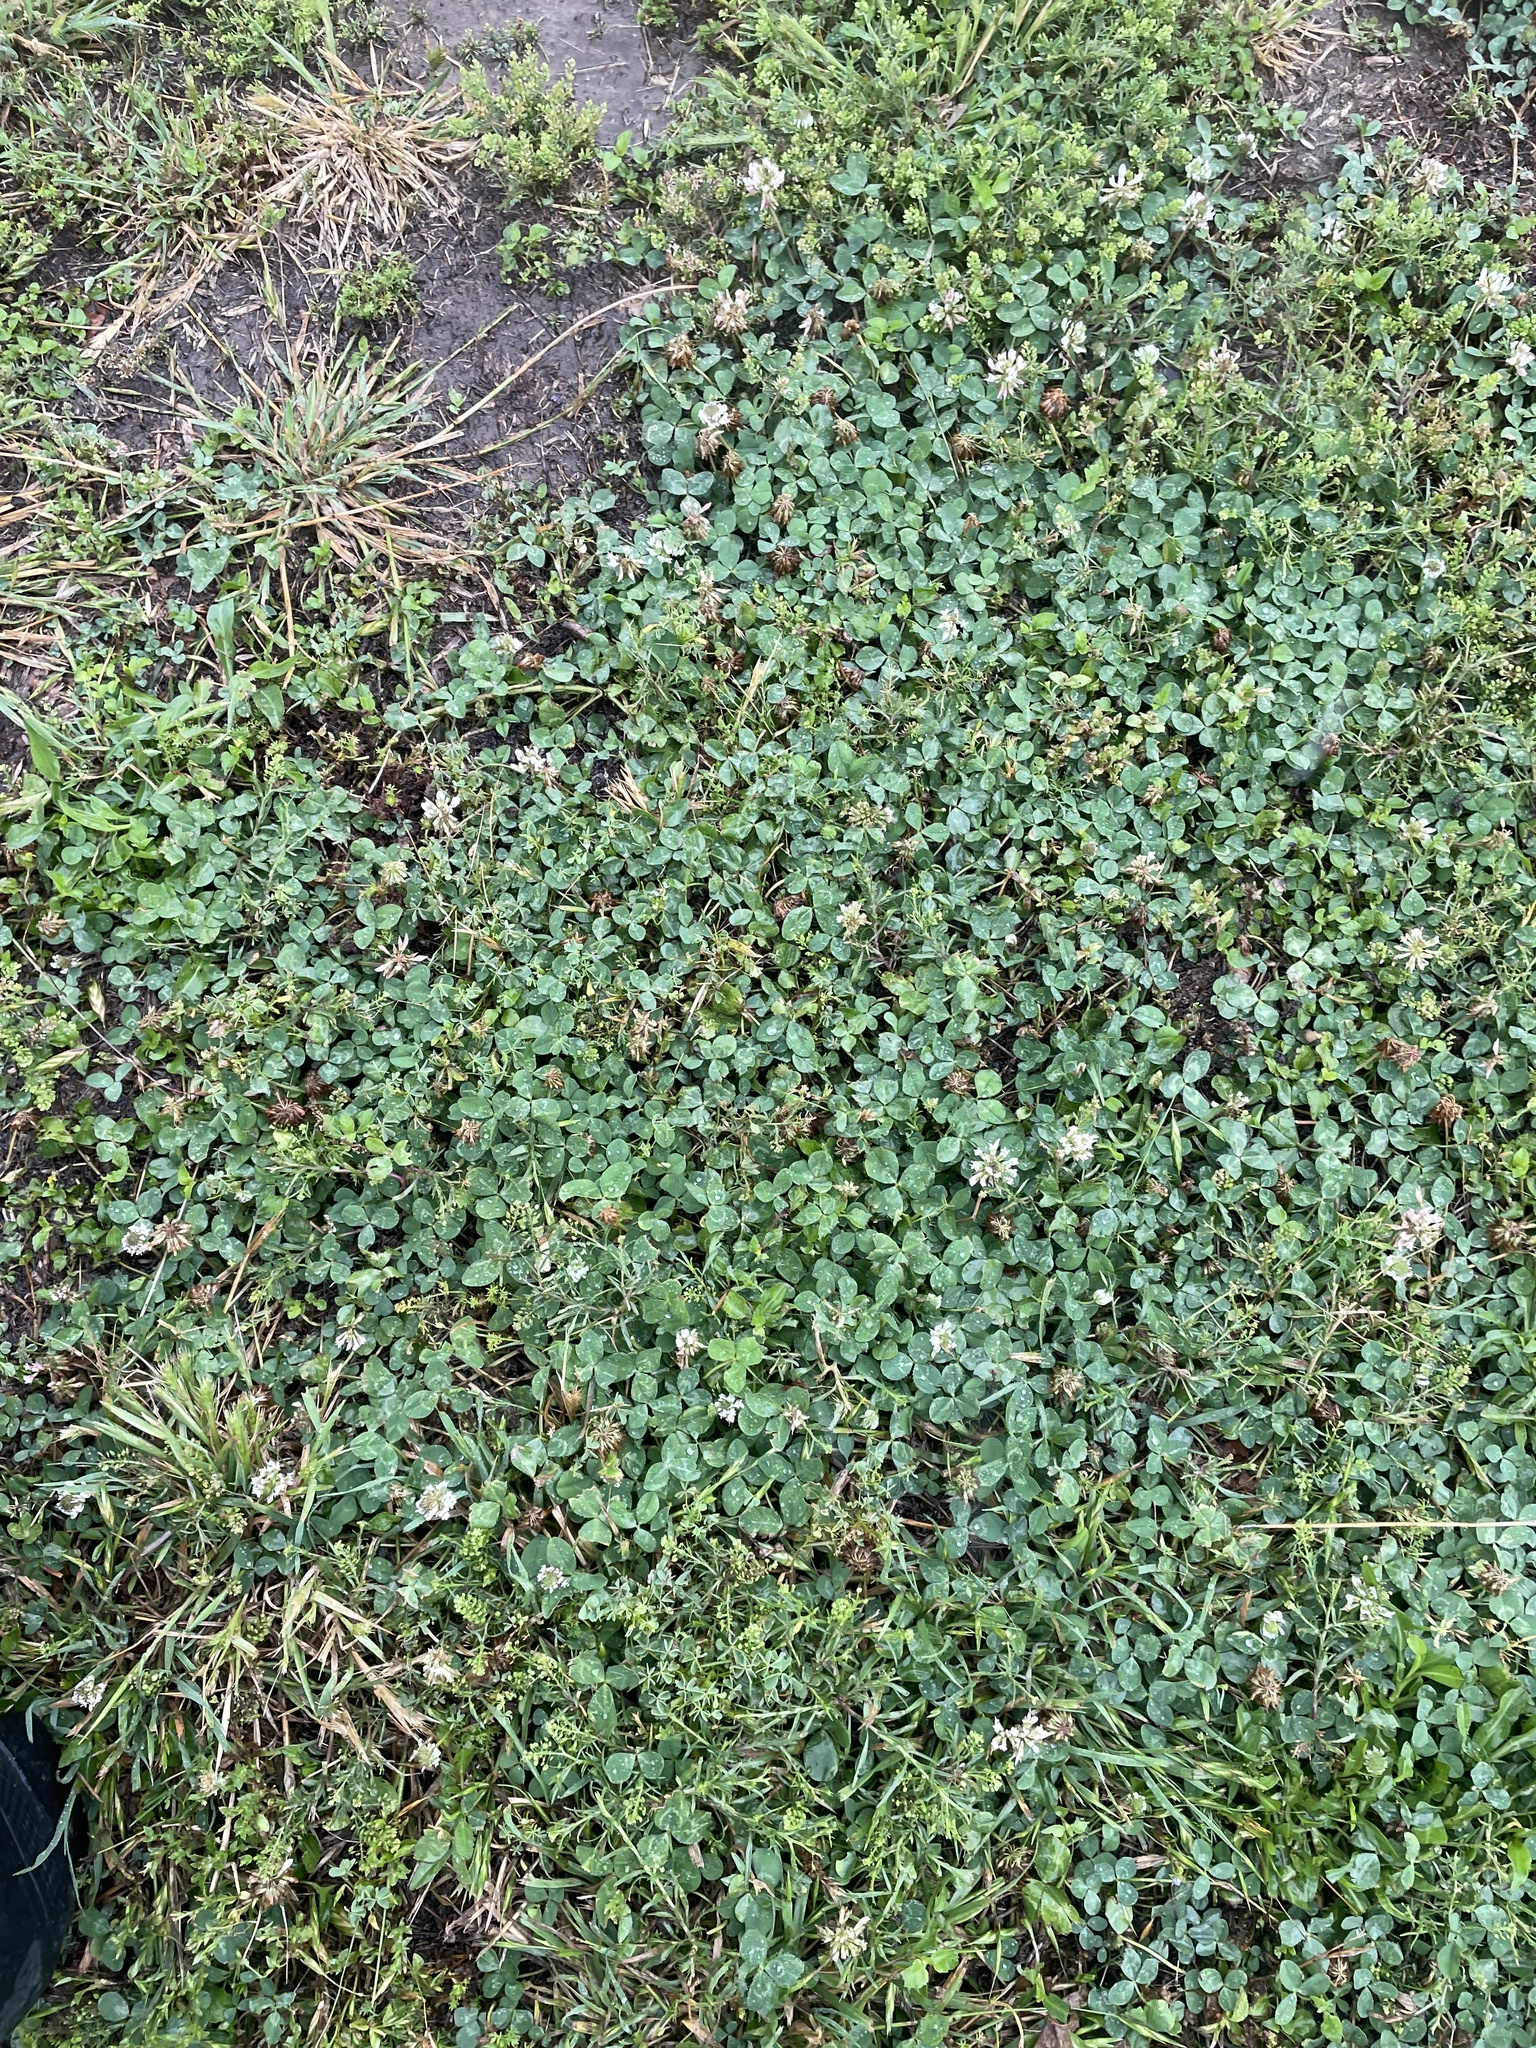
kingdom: Plantae
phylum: Tracheophyta
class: Magnoliopsida
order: Fabales
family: Fabaceae
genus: Trifolium
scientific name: Trifolium repens
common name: White clover
